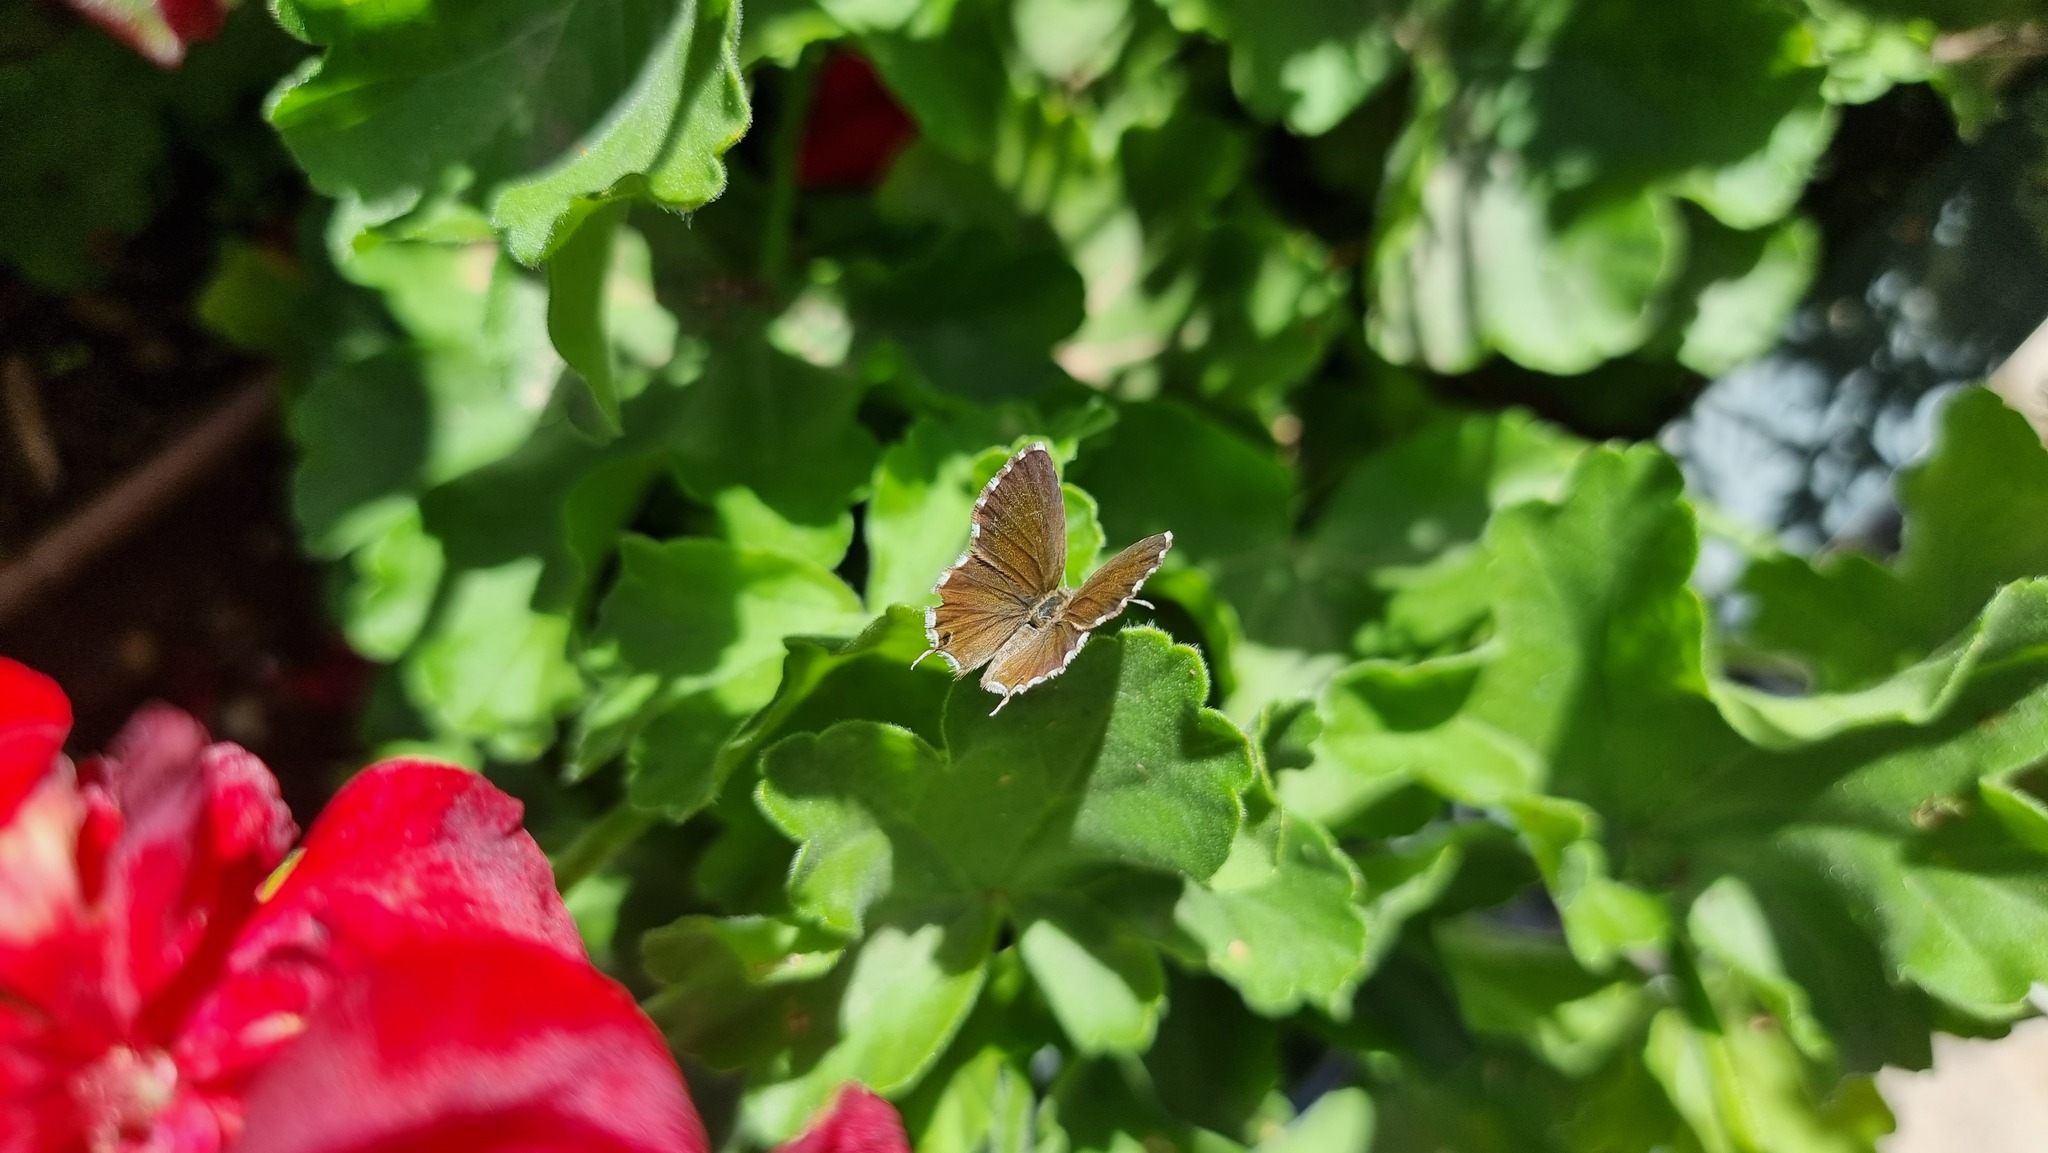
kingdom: Animalia
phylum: Arthropoda
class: Insecta
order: Lepidoptera
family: Lycaenidae
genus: Cacyreus
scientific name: Cacyreus marshalli
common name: Geranium bronze
